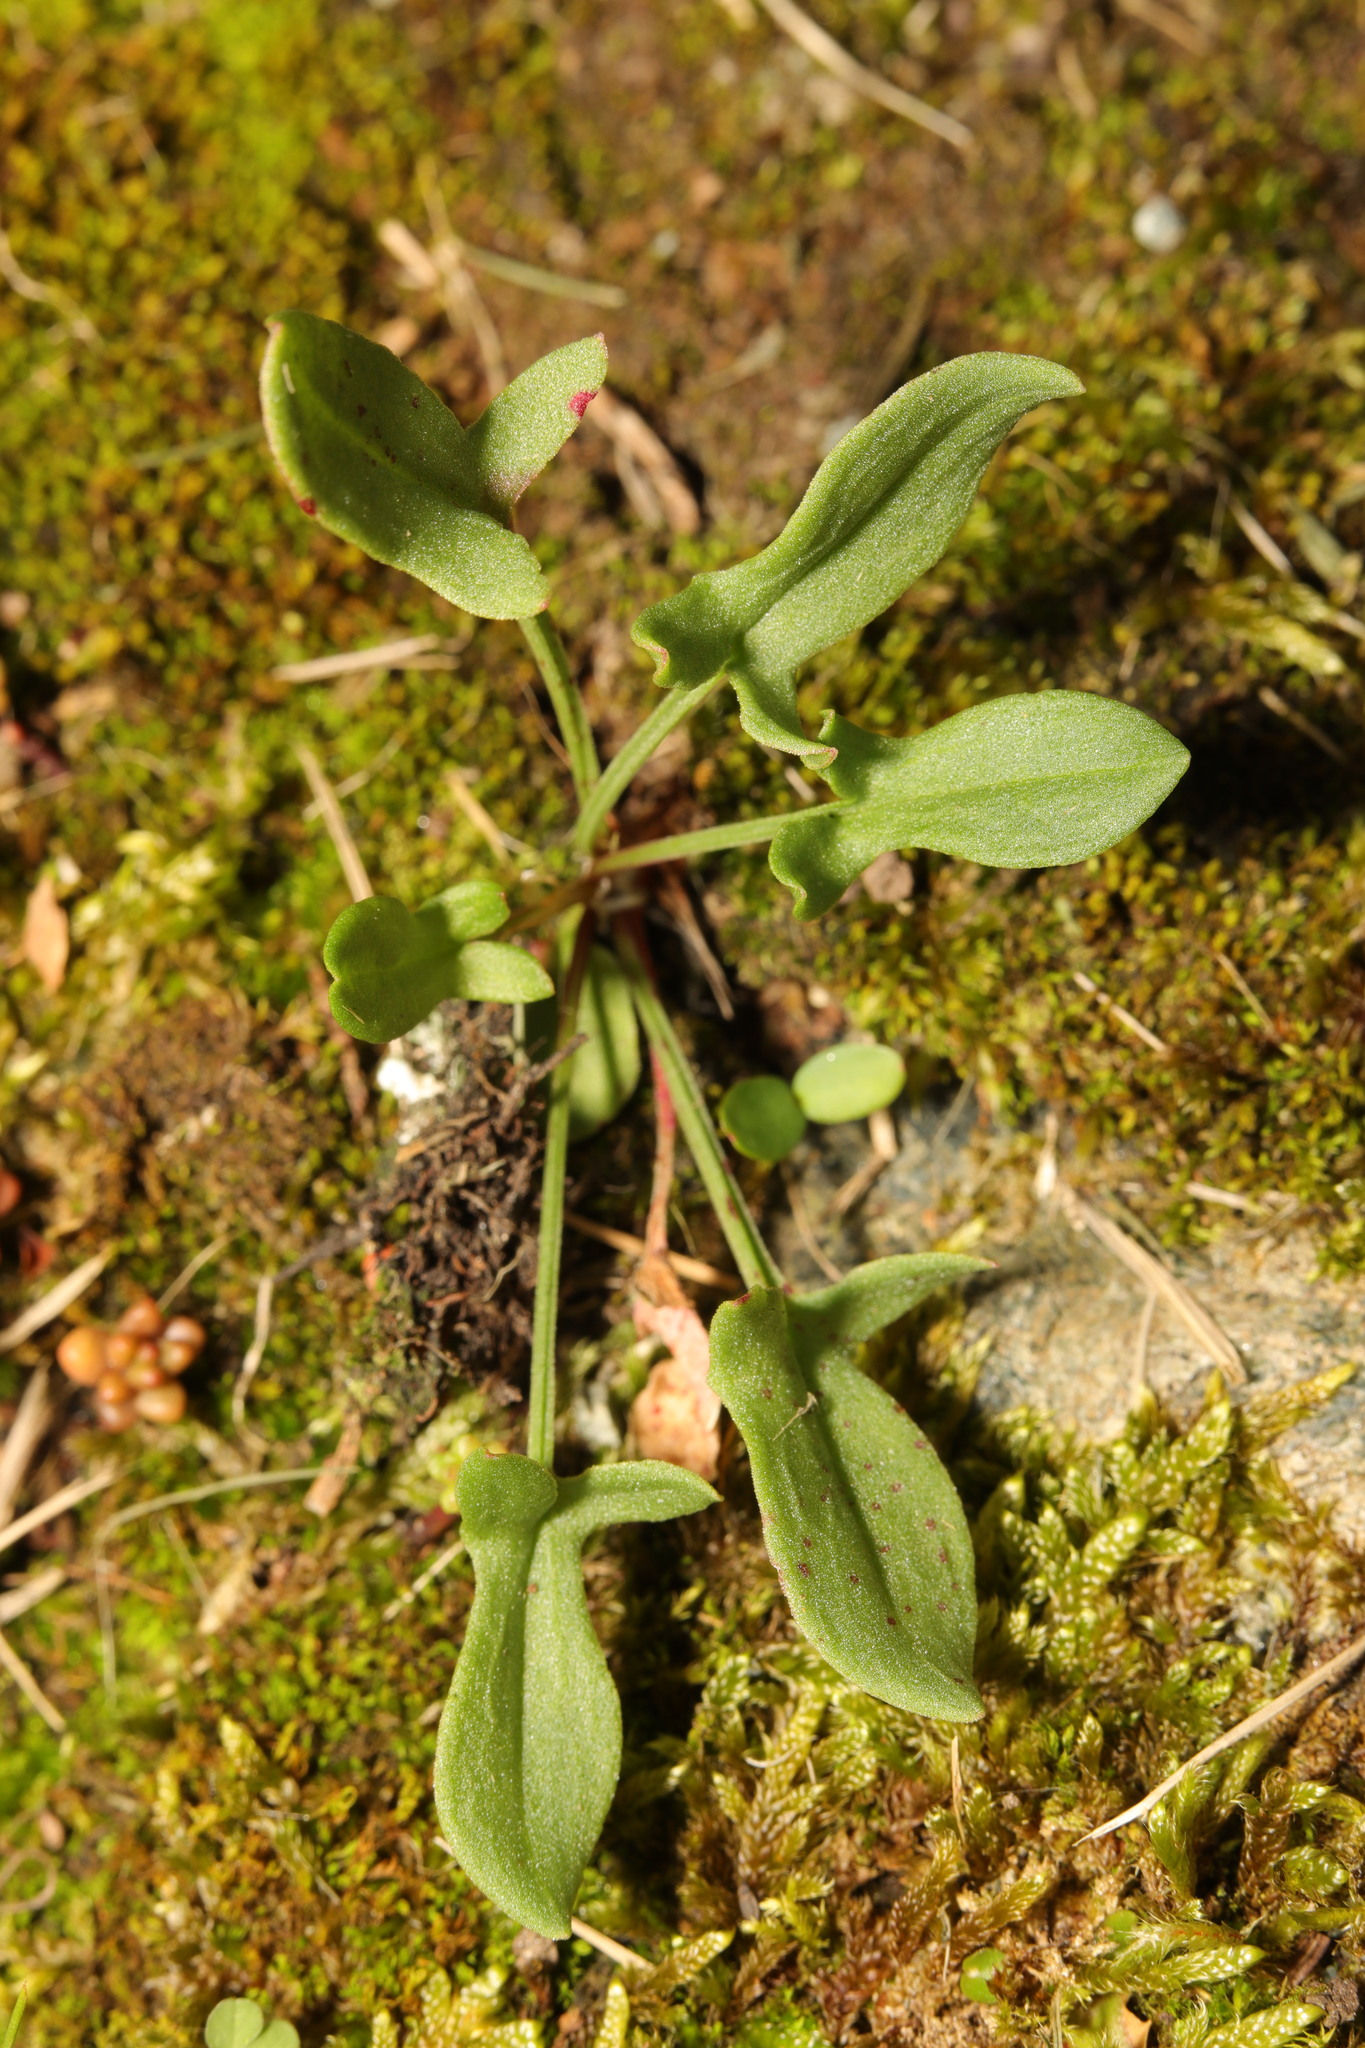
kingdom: Plantae
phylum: Tracheophyta
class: Magnoliopsida
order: Caryophyllales
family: Polygonaceae
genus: Rumex
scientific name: Rumex acetosella
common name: Common sheep sorrel
